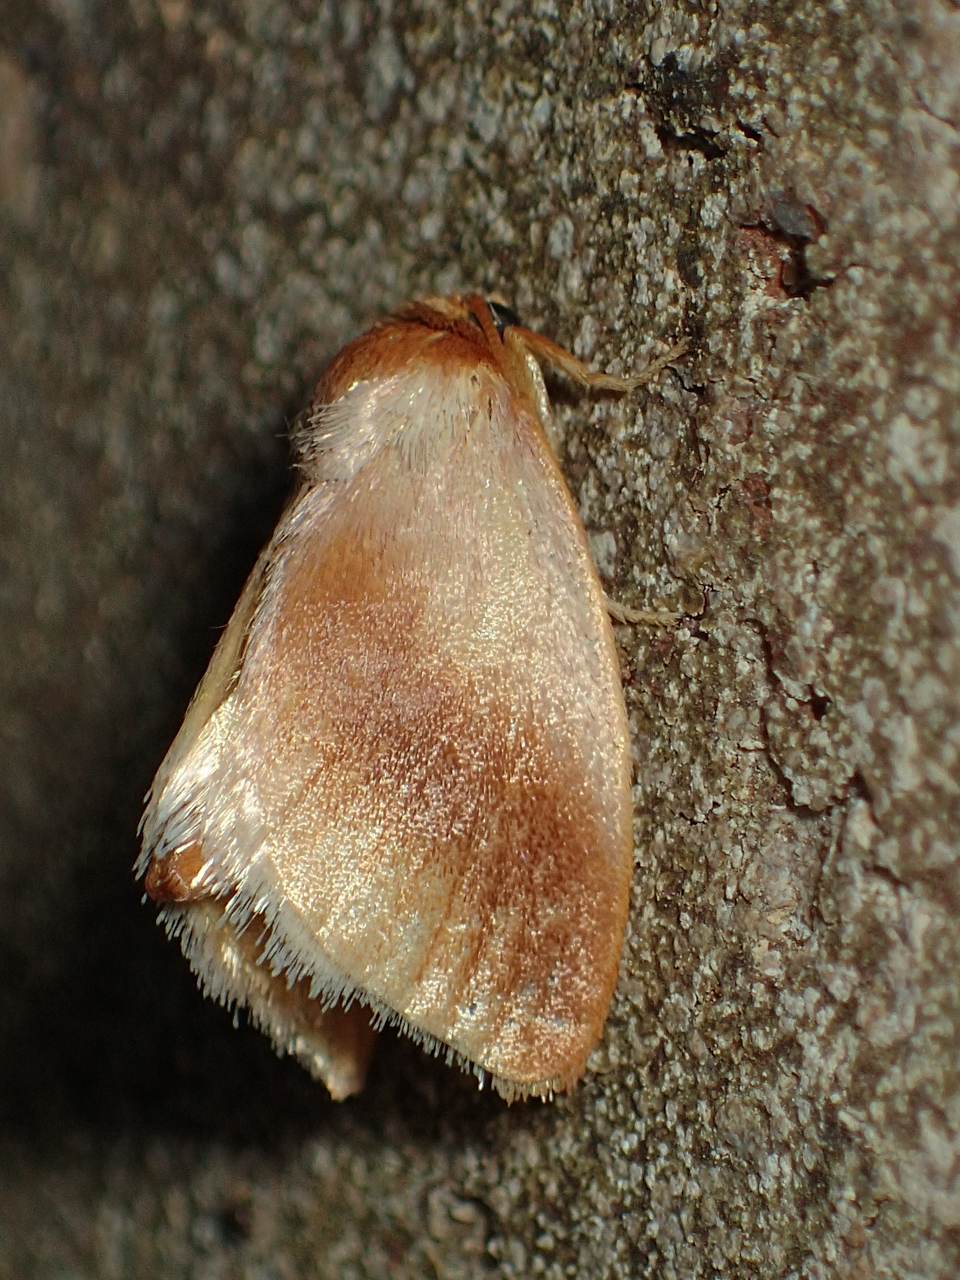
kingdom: Animalia
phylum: Arthropoda
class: Insecta
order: Lepidoptera
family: Limacodidae
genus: Tortricidia
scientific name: Tortricidia testacea
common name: Early button slug moth
